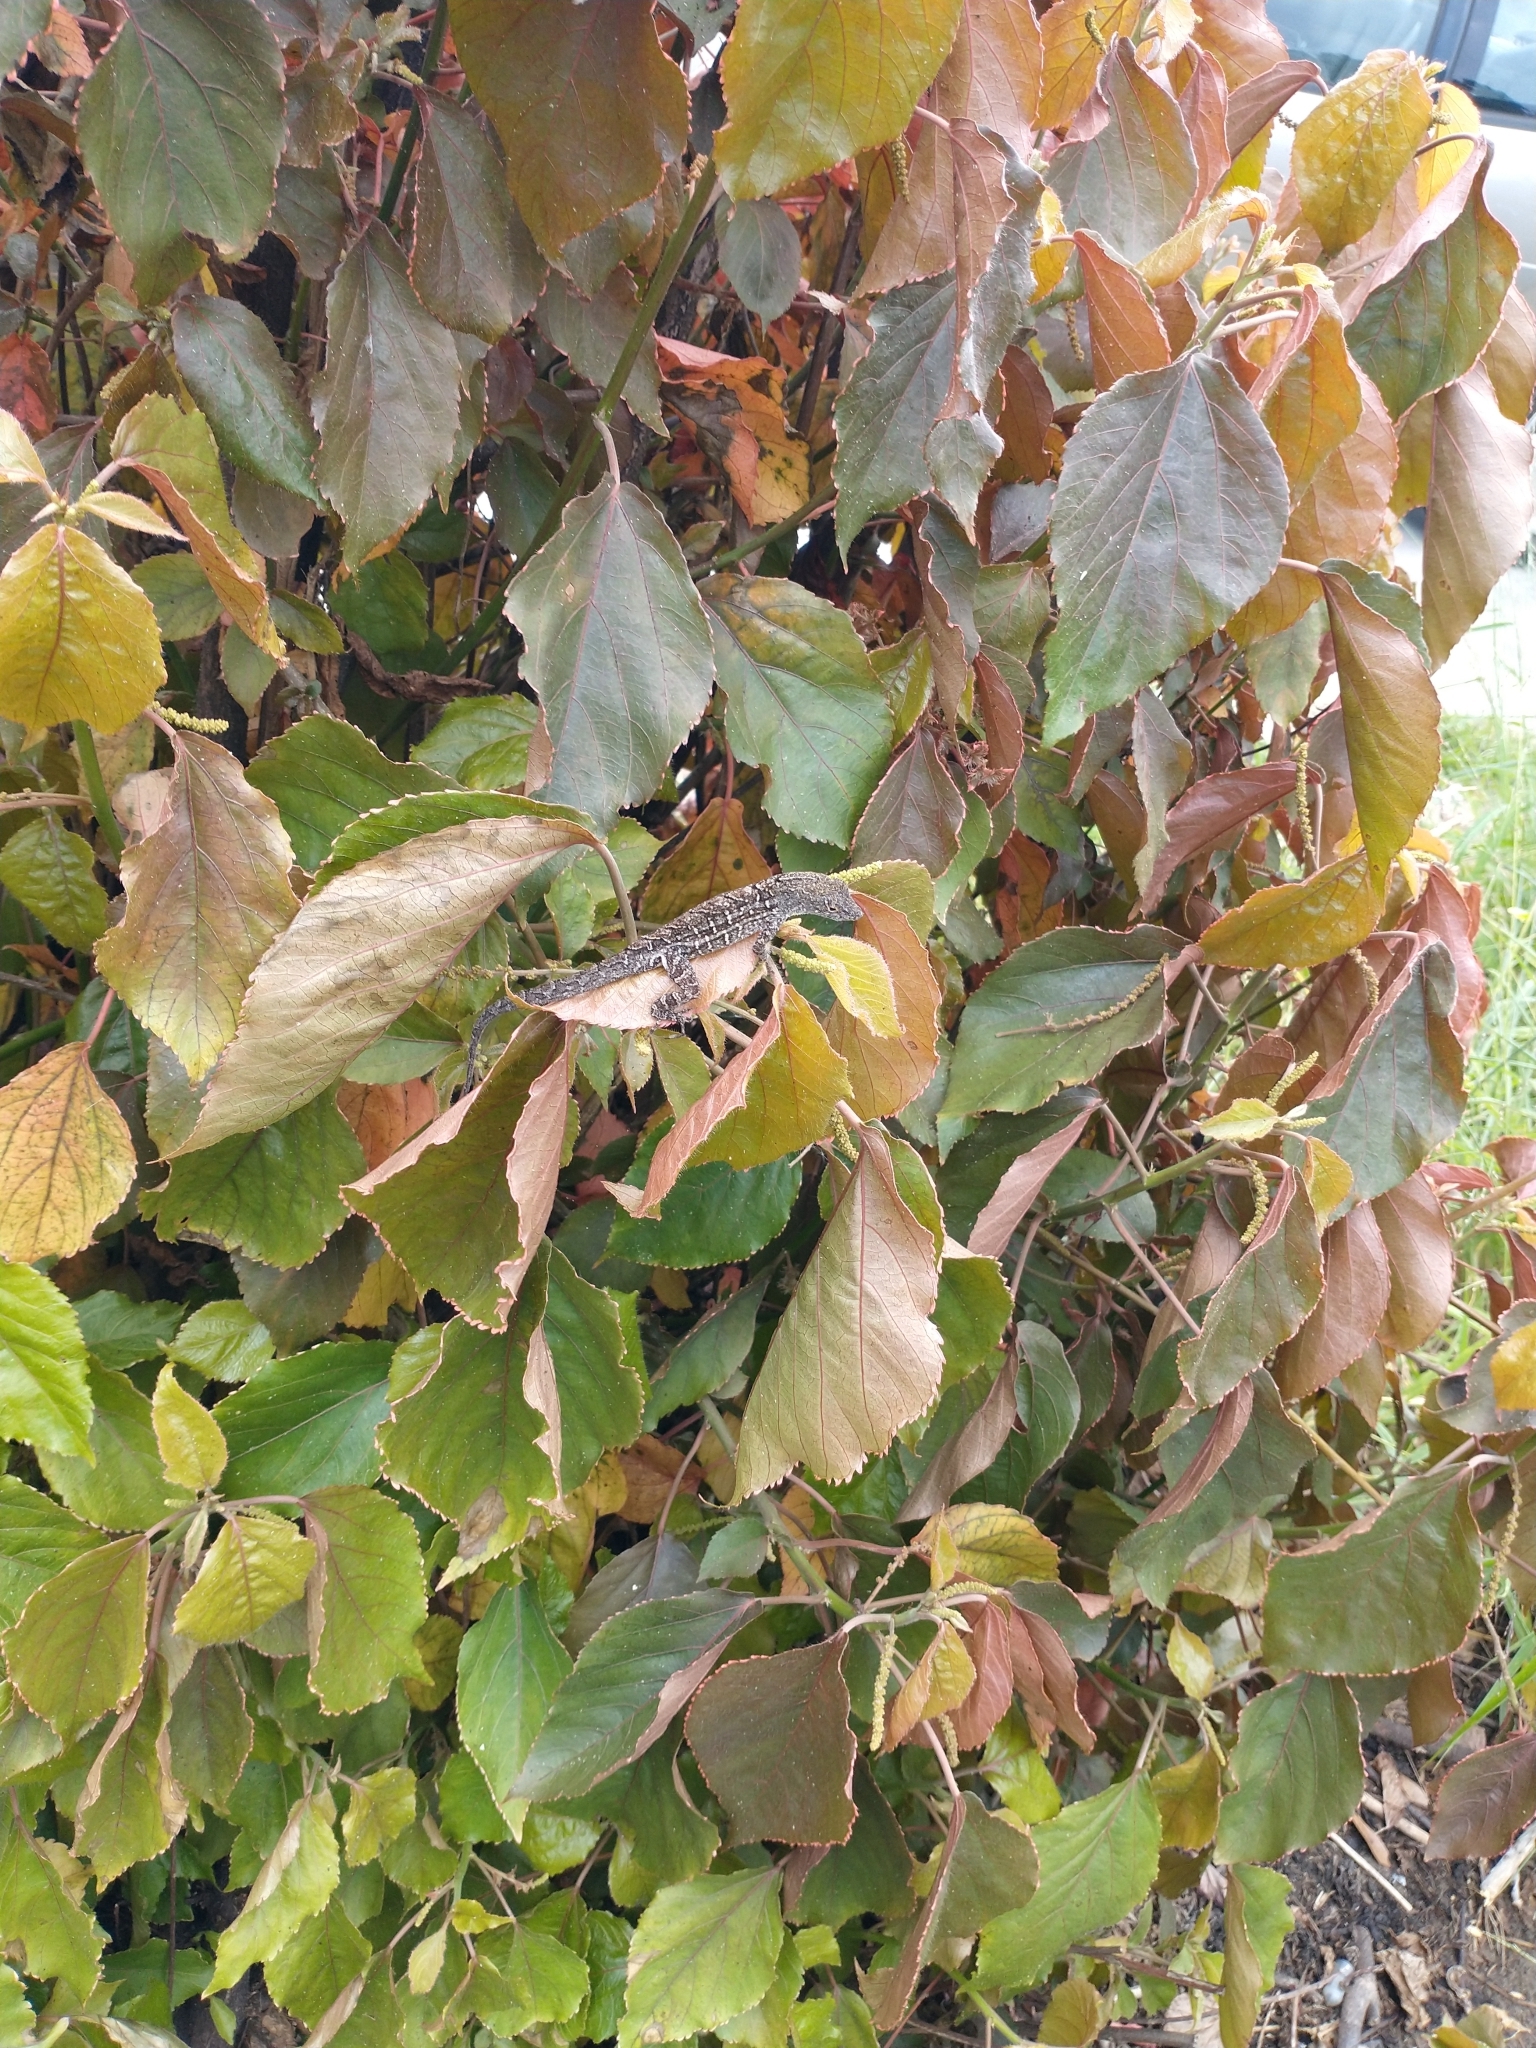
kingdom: Animalia
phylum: Chordata
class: Squamata
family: Dactyloidae
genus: Anolis
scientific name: Anolis sagrei
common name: Brown anole
